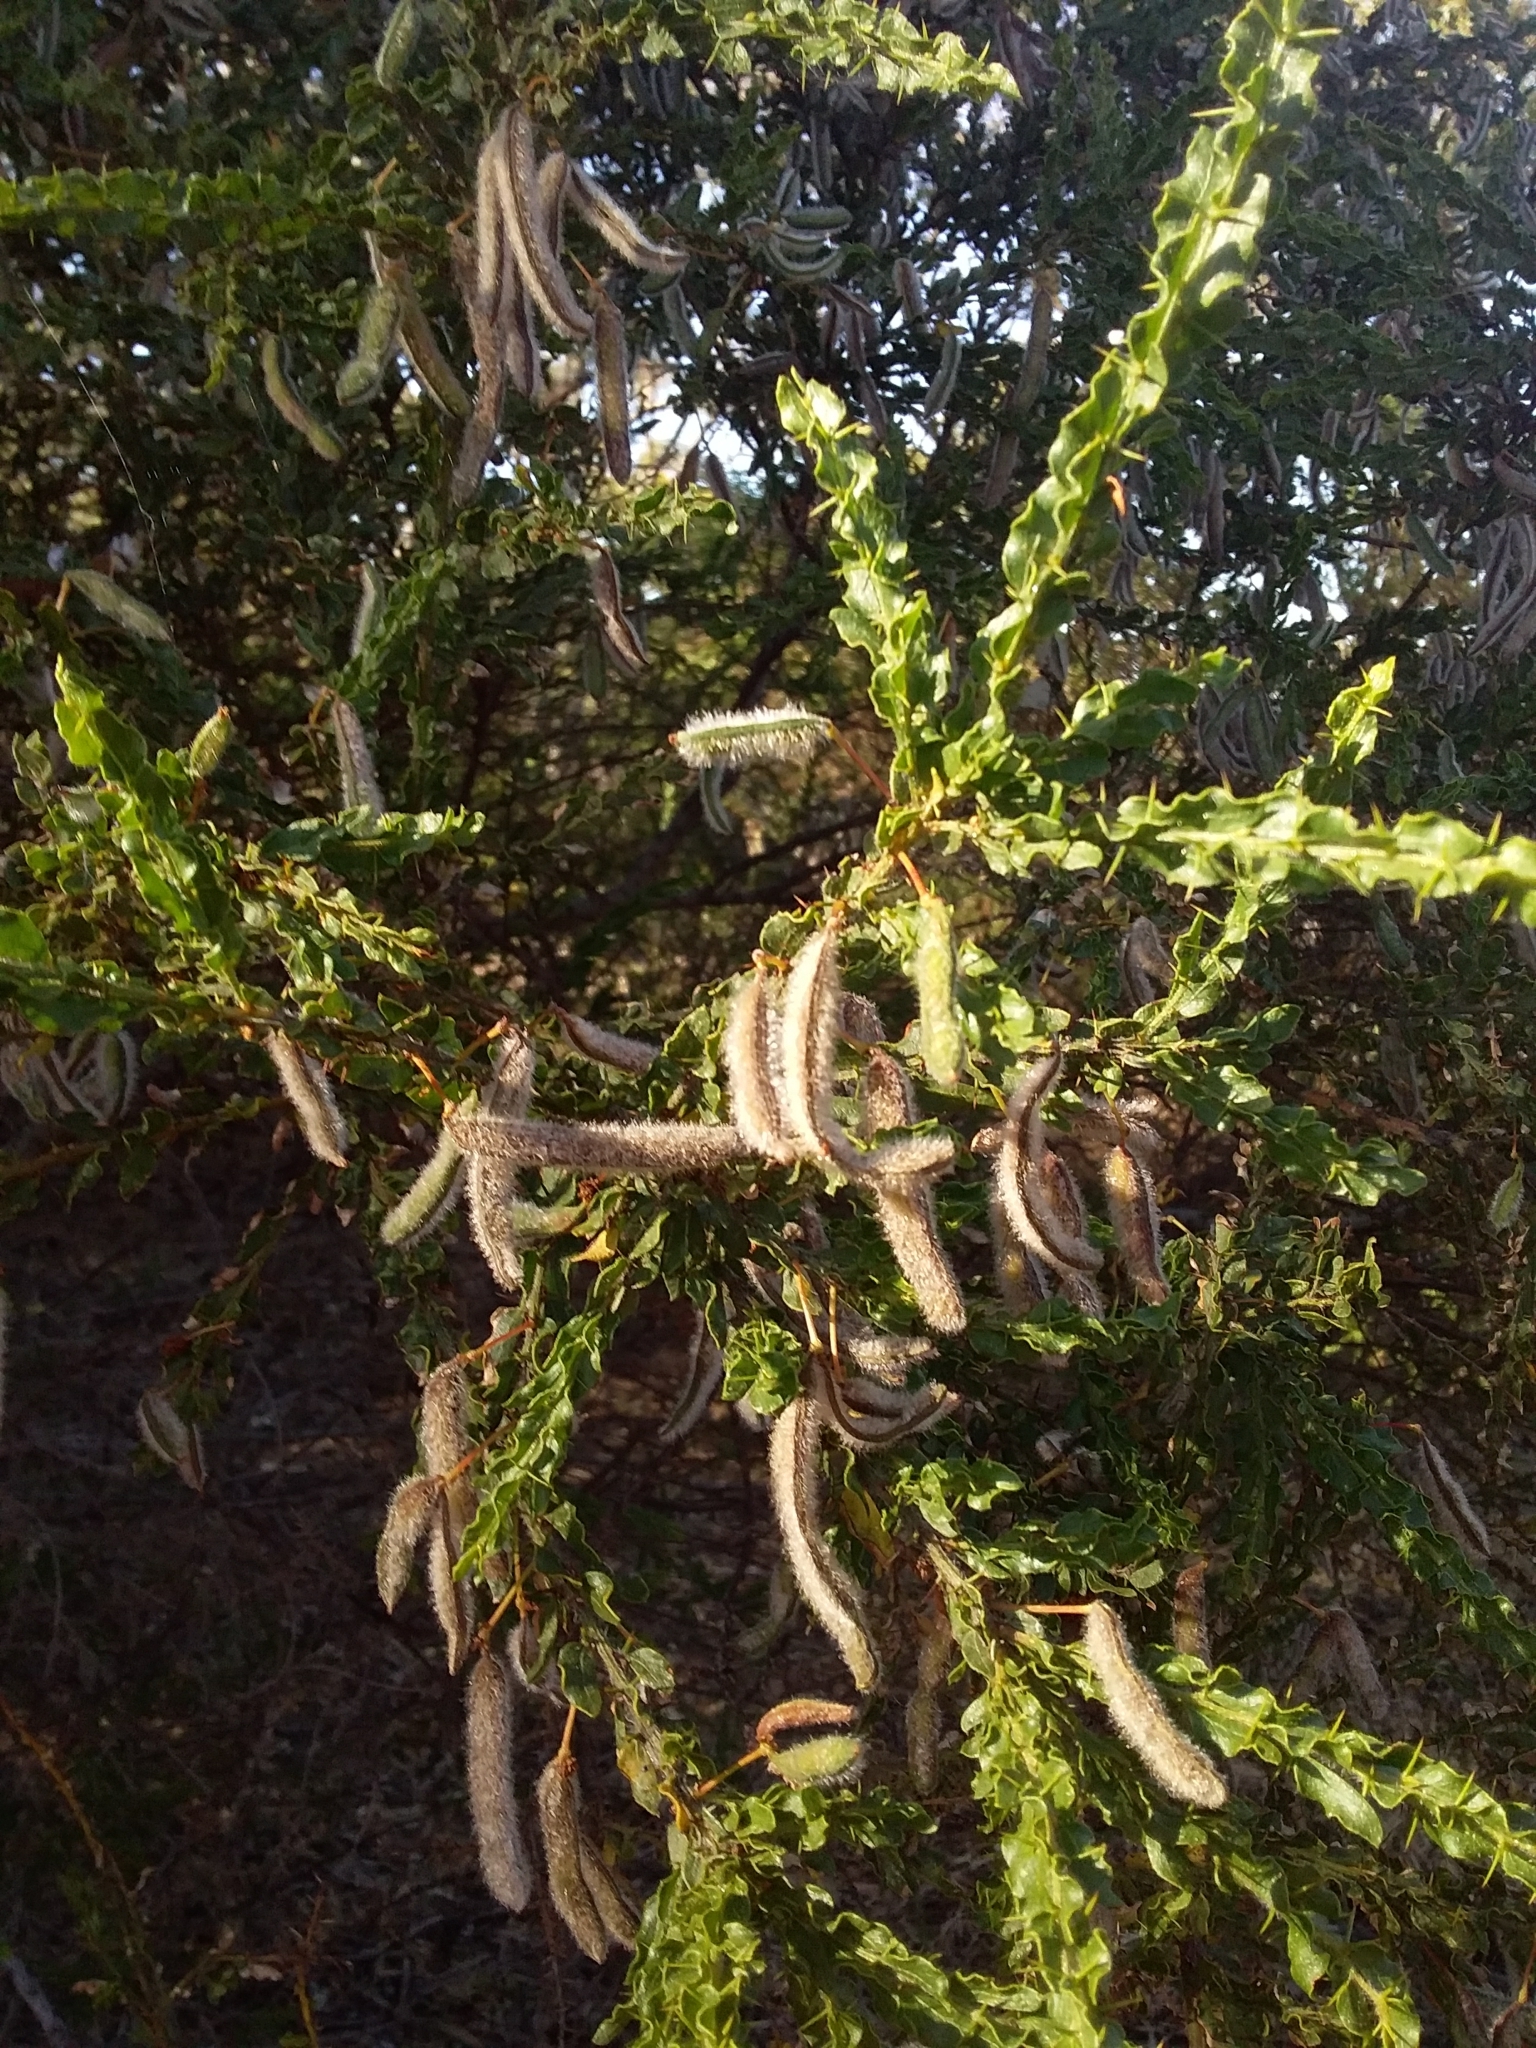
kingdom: Plantae
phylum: Tracheophyta
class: Magnoliopsida
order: Fabales
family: Fabaceae
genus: Acacia
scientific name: Acacia paradoxa
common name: Paradox acacia
